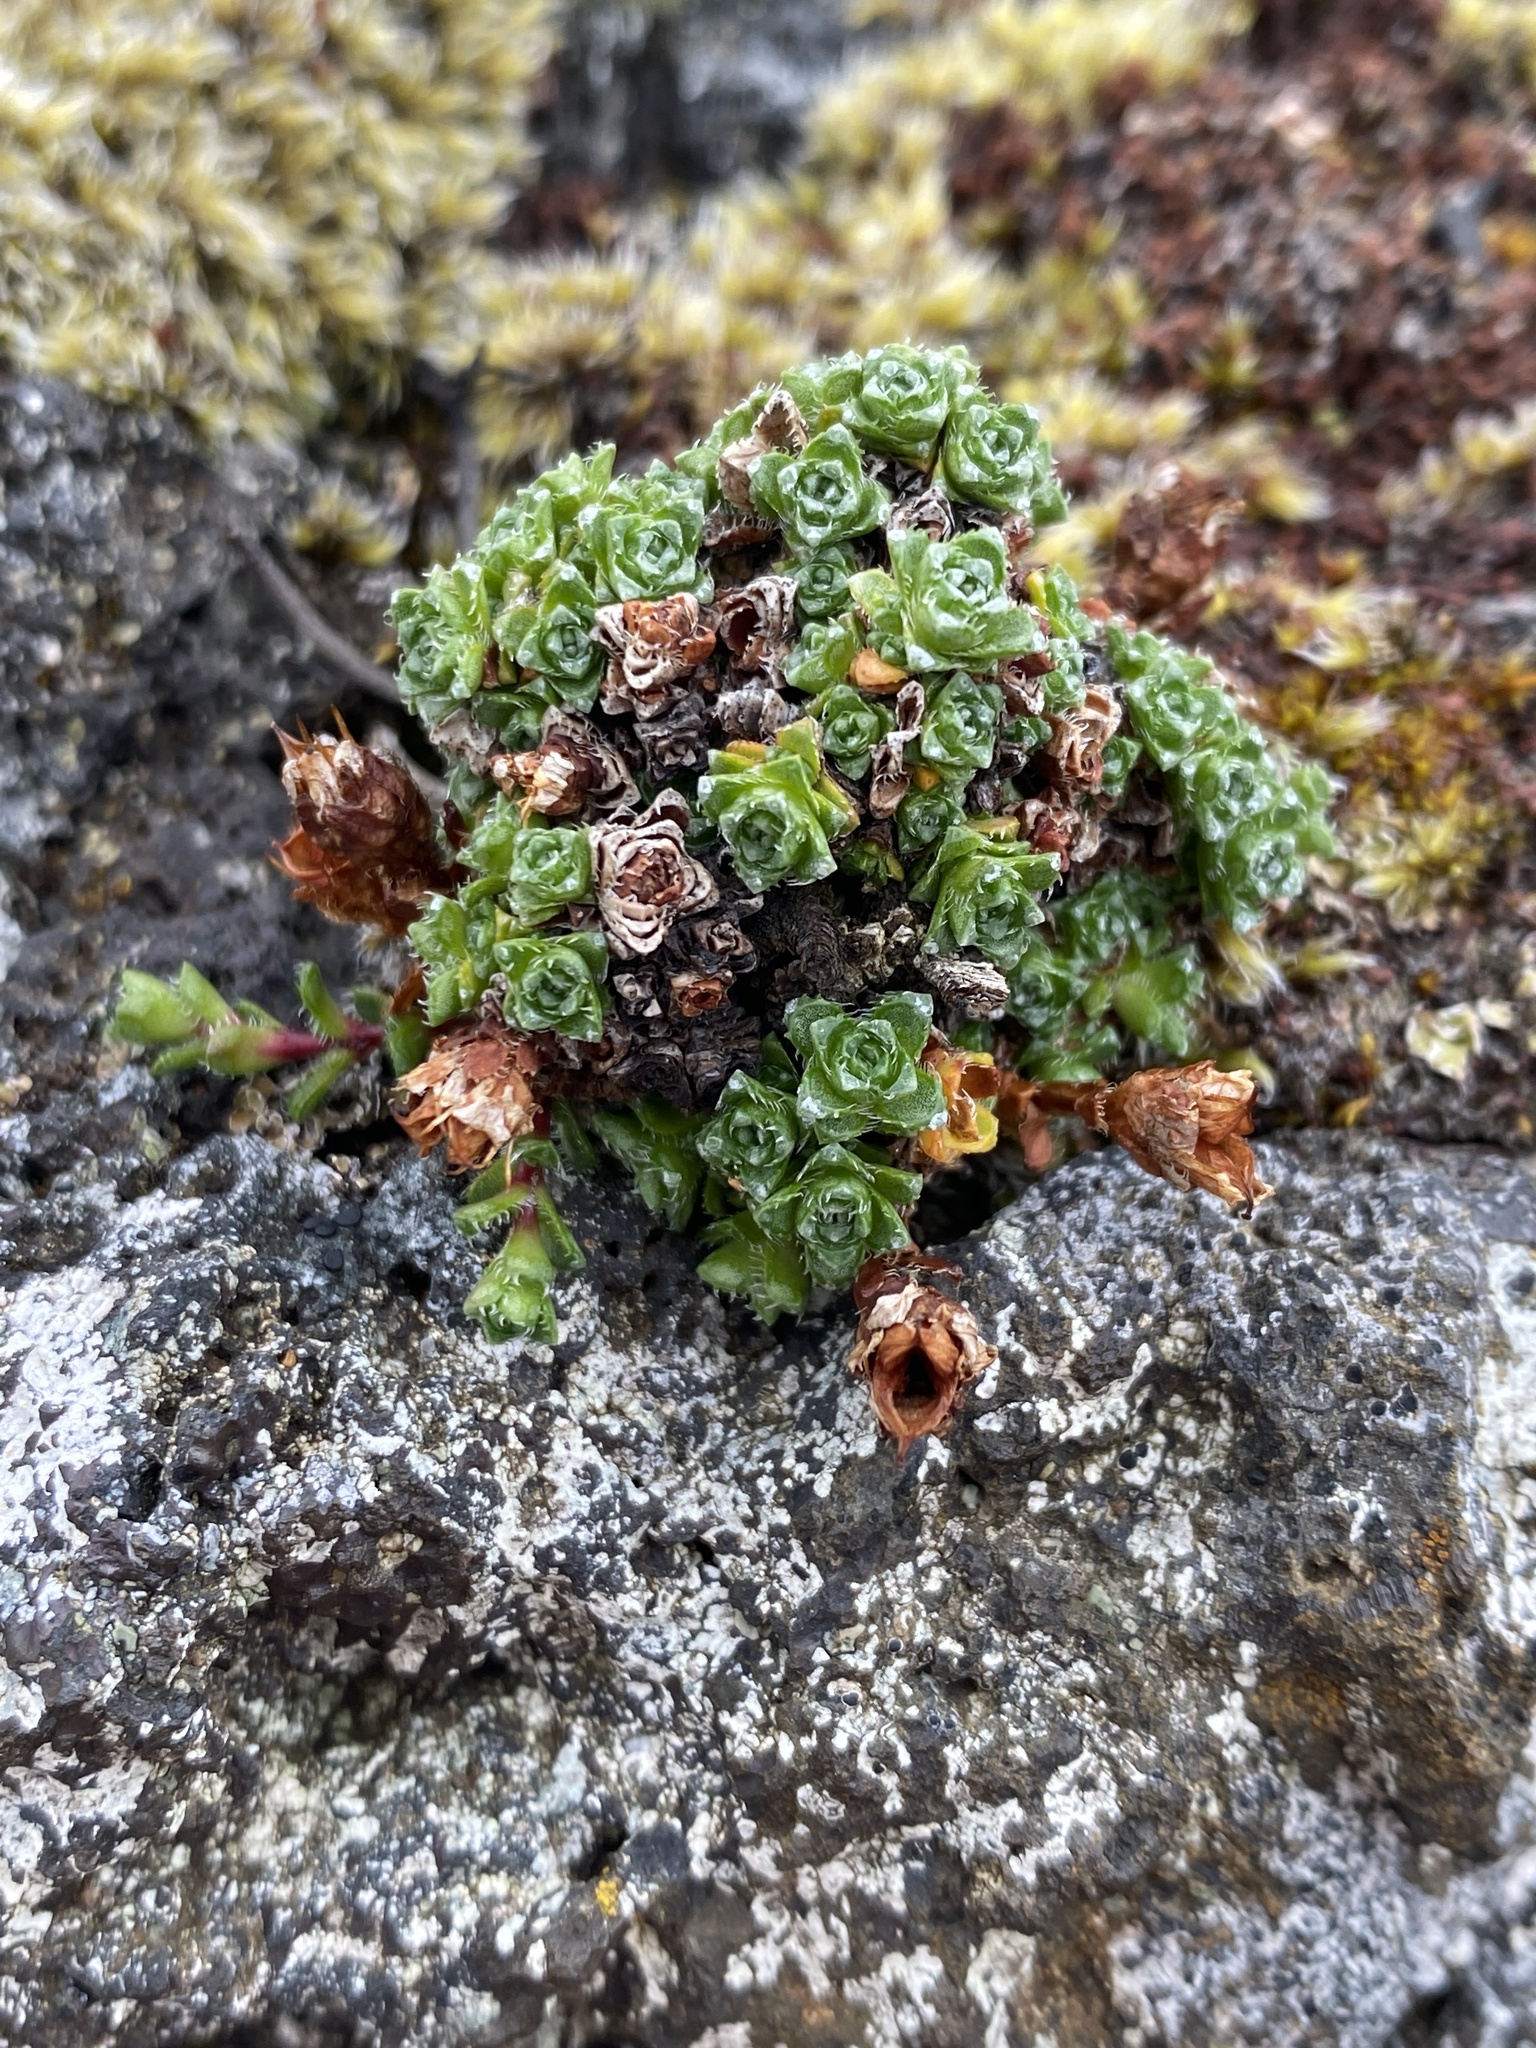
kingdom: Plantae
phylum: Tracheophyta
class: Magnoliopsida
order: Saxifragales
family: Saxifragaceae
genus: Saxifraga
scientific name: Saxifraga oppositifolia
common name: Purple saxifrage
